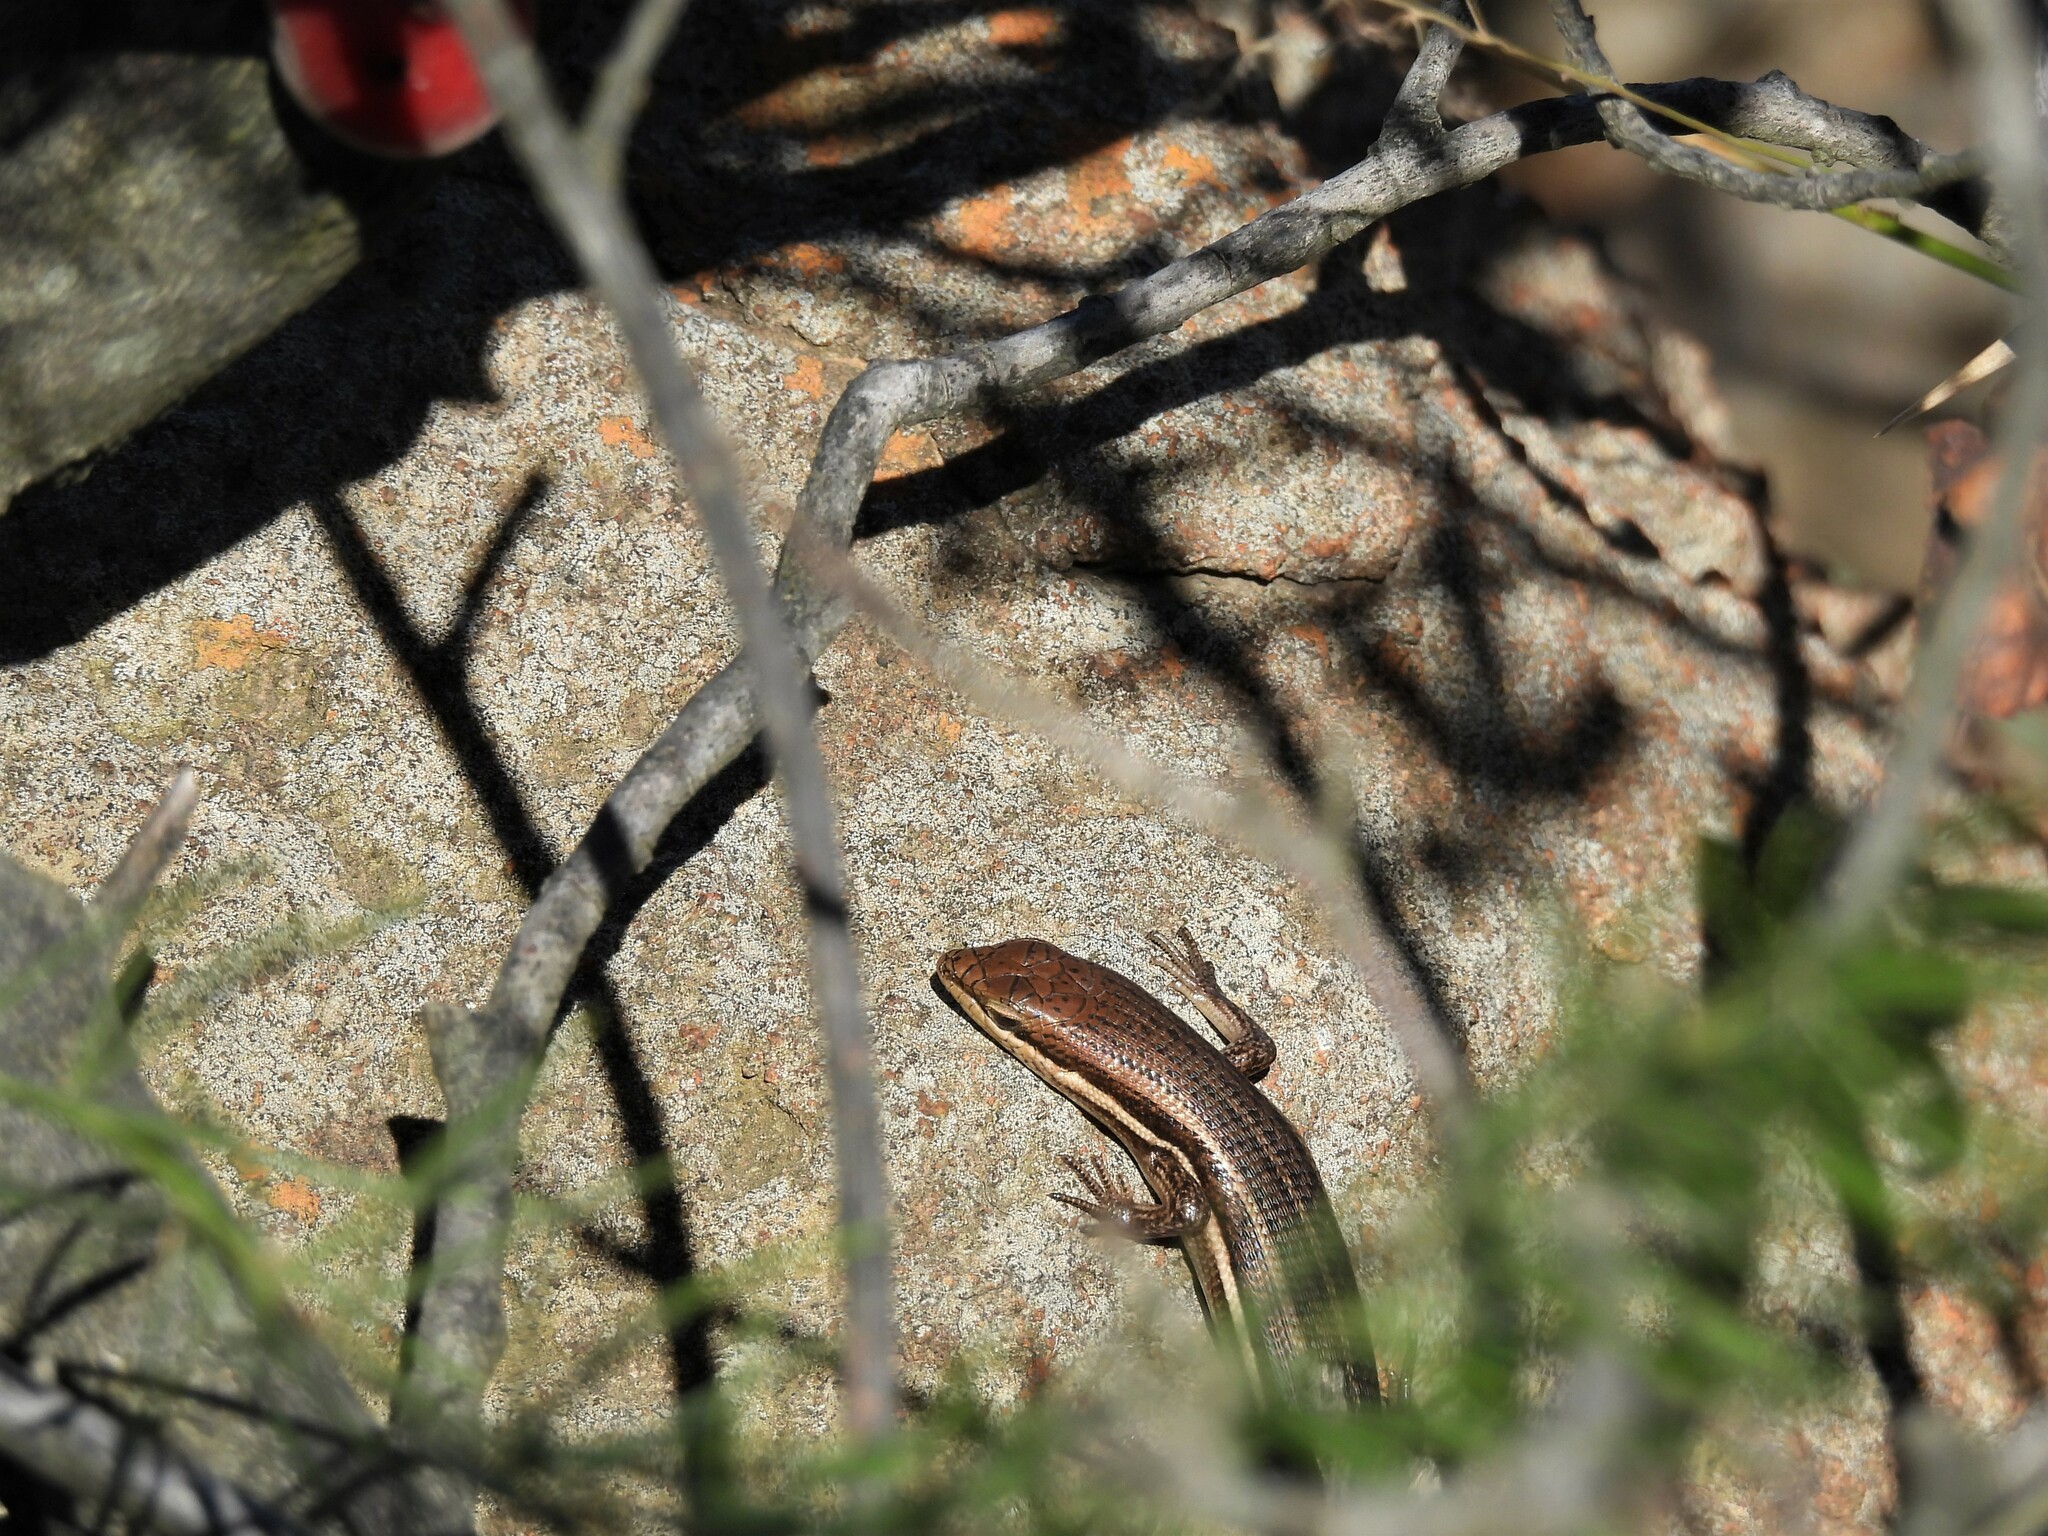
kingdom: Animalia
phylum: Chordata
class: Squamata
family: Scincidae
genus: Trachylepis
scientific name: Trachylepis varia
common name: Eastern variable skink
